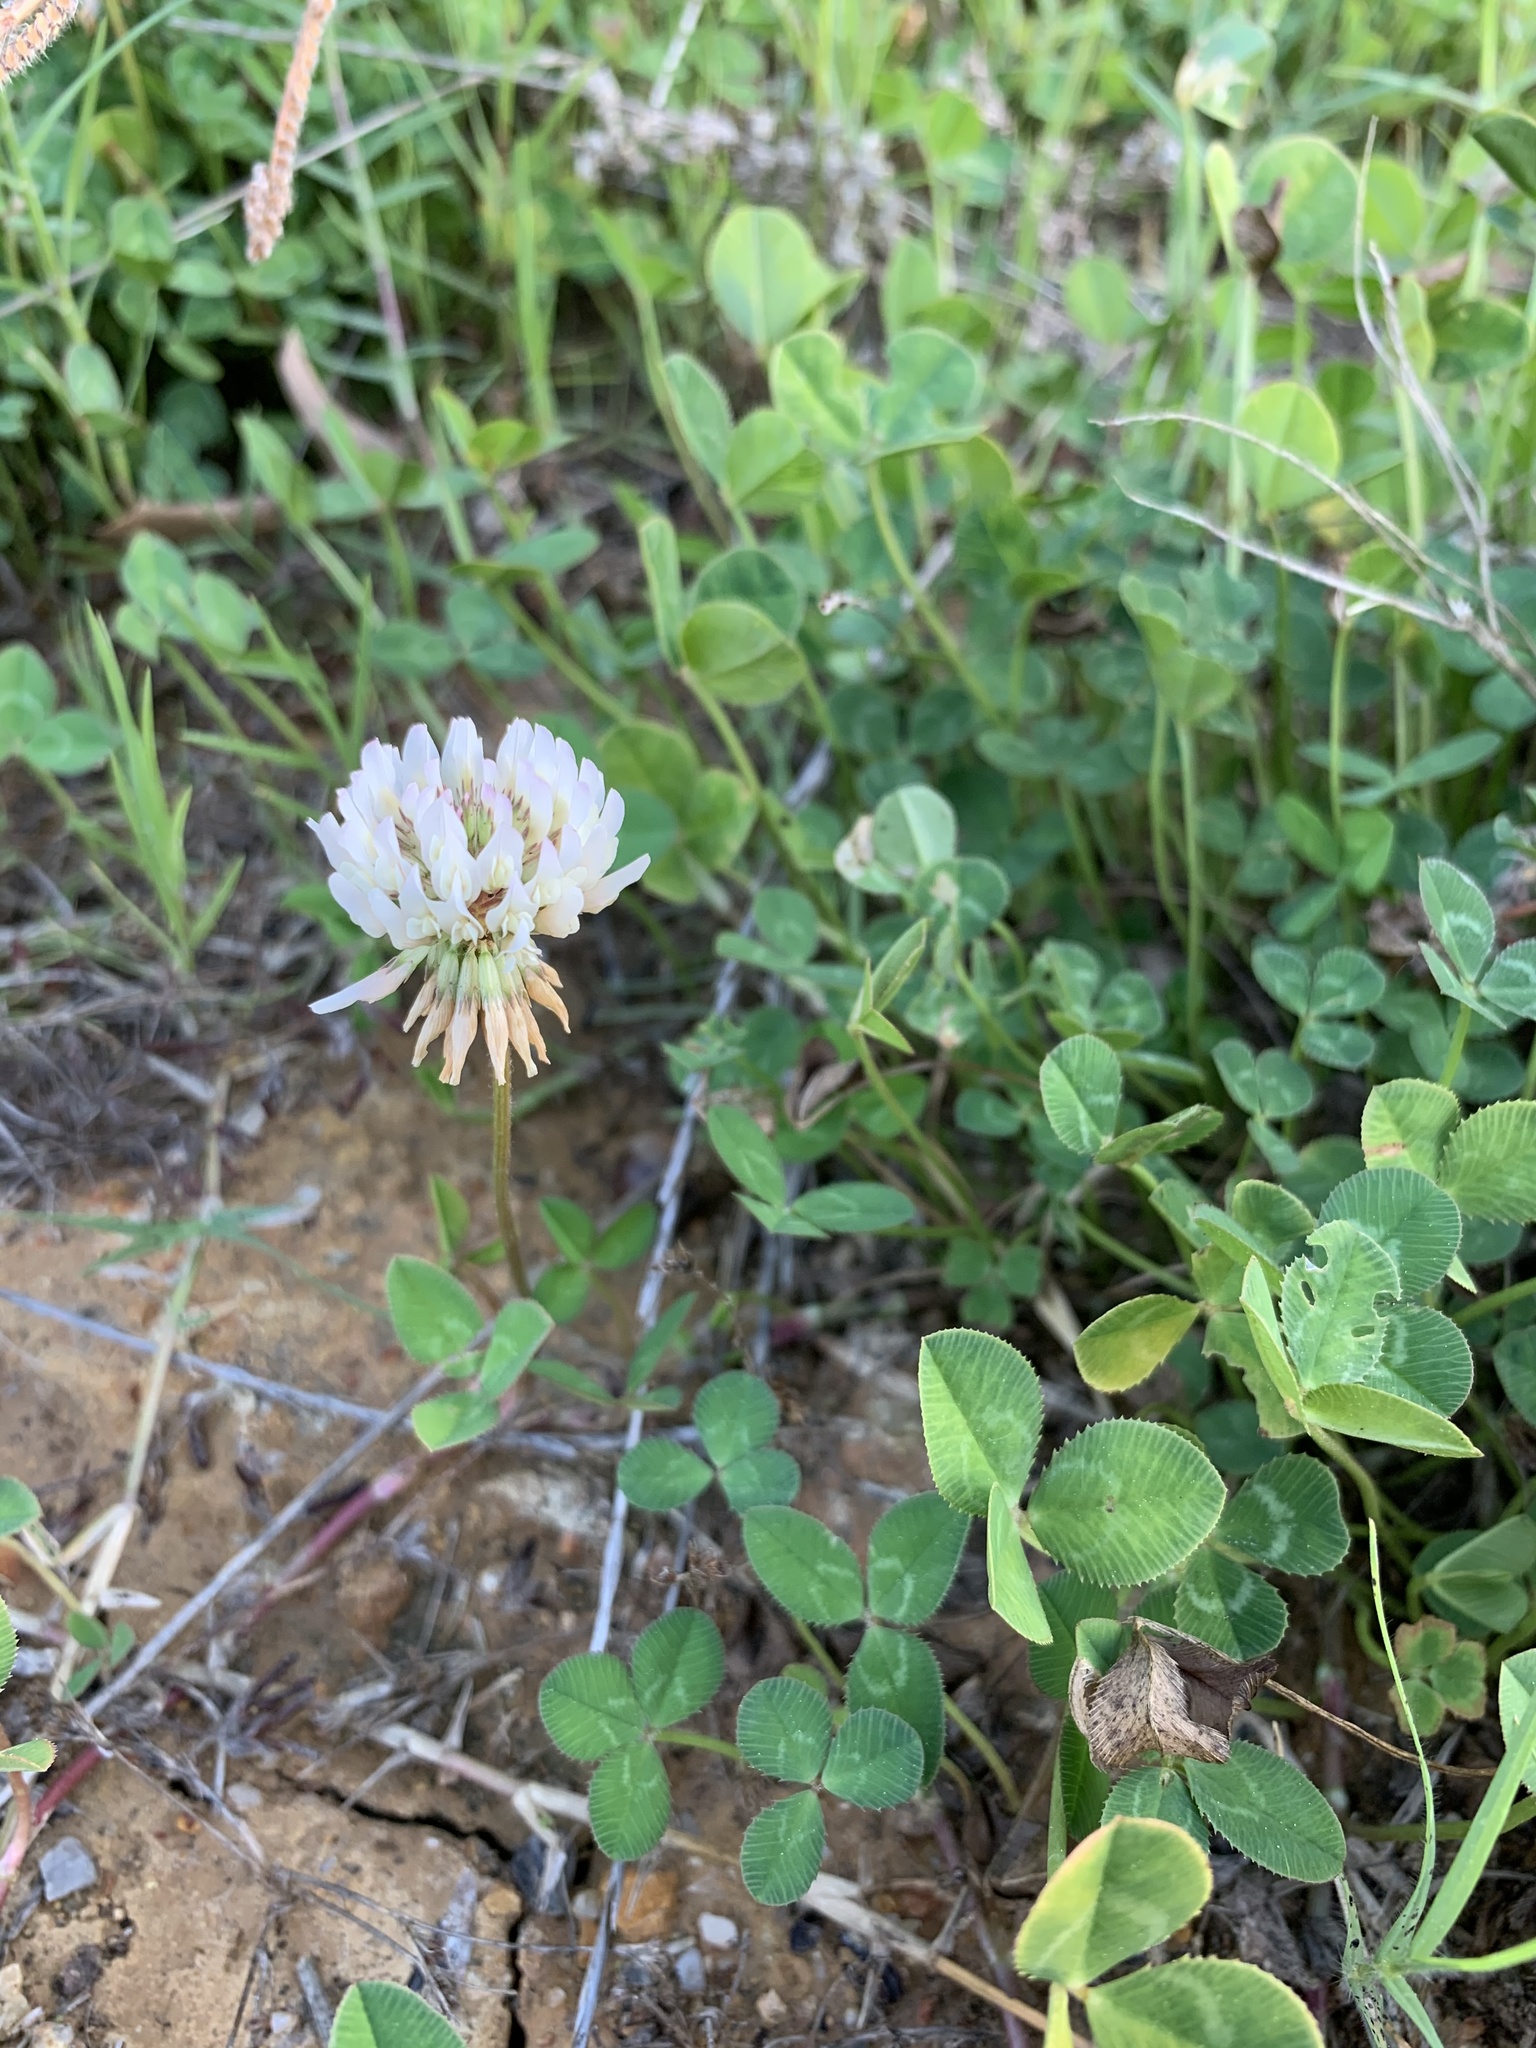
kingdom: Plantae
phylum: Tracheophyta
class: Magnoliopsida
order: Fabales
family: Fabaceae
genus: Trifolium
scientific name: Trifolium repens
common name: White clover
